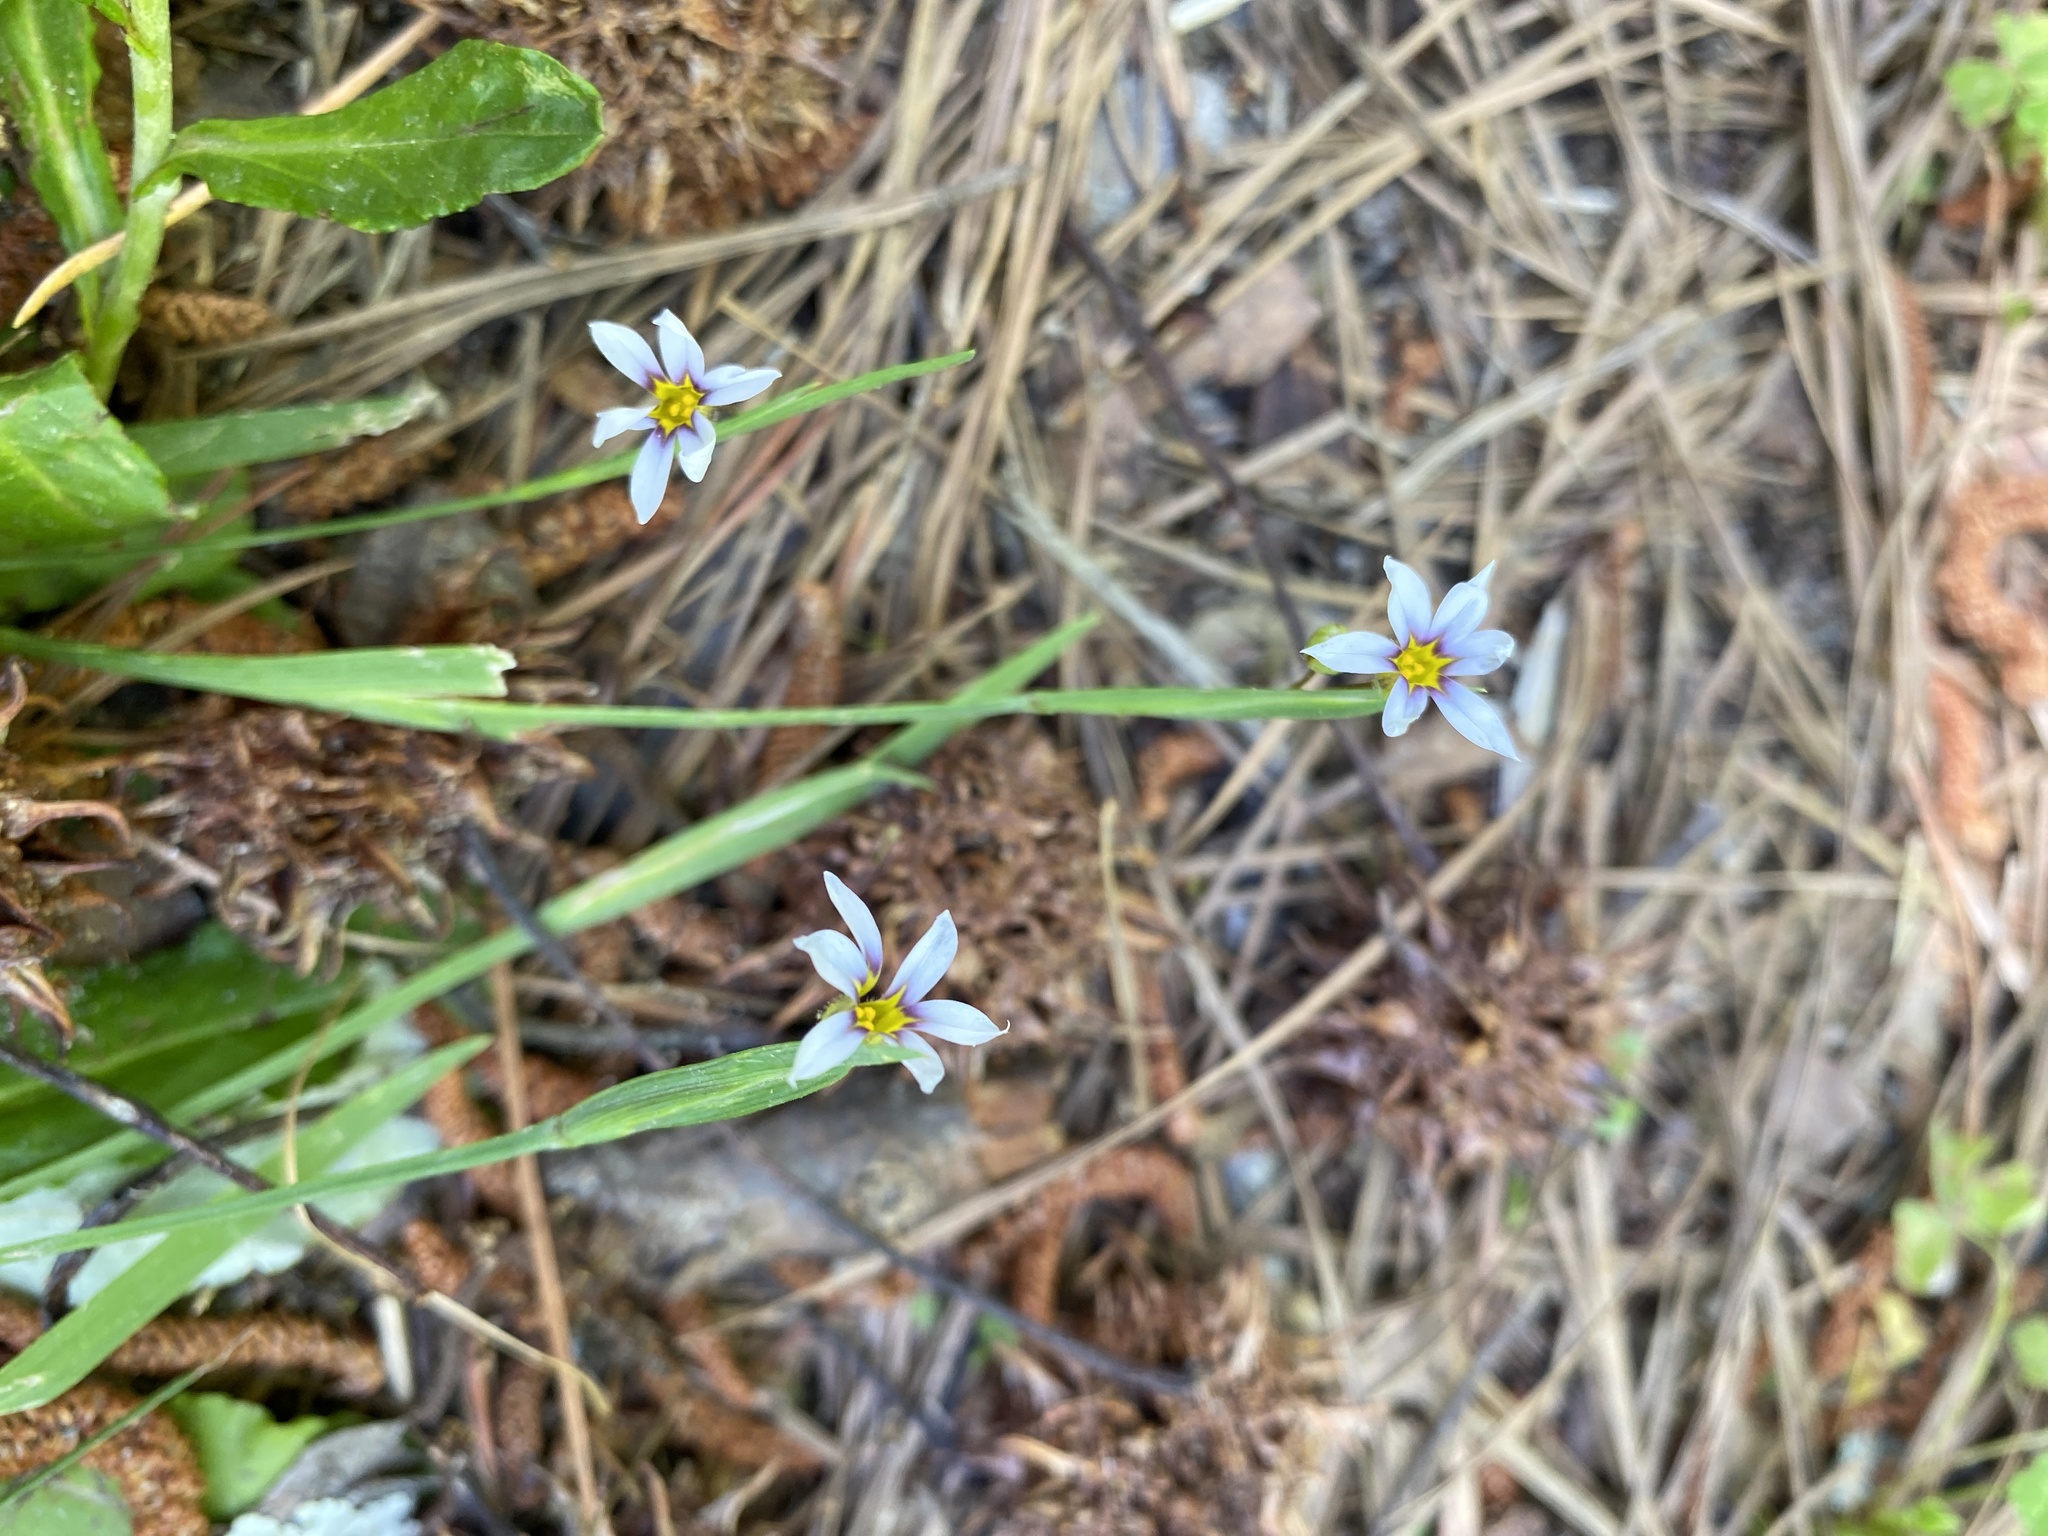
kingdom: Plantae
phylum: Tracheophyta
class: Liliopsida
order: Asparagales
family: Iridaceae
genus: Sisyrinchium
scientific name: Sisyrinchium micranthum
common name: Bermuda pigroot
